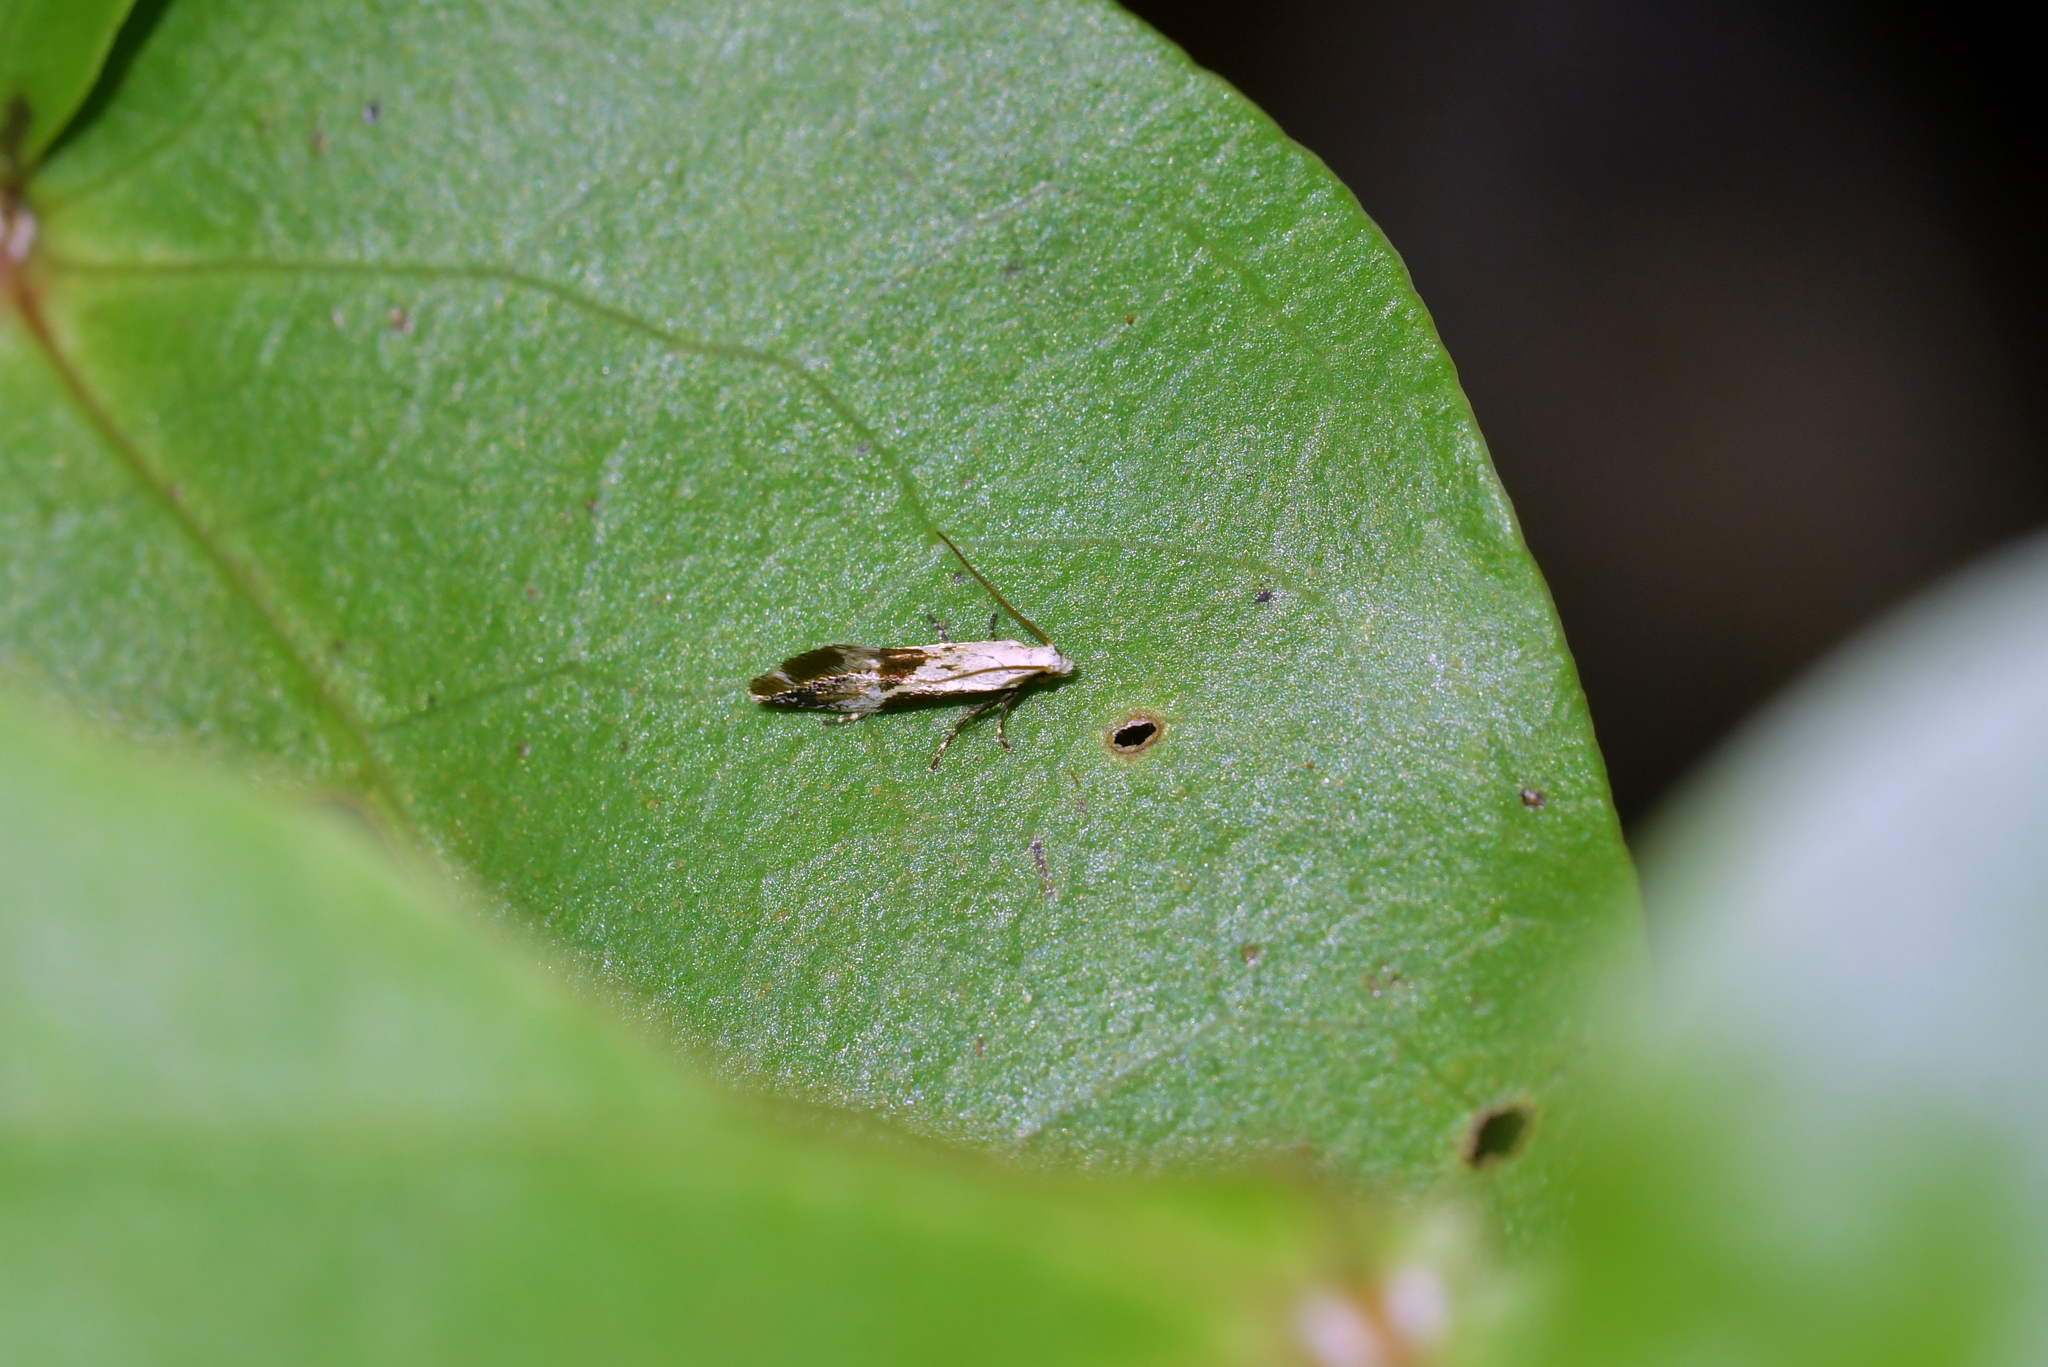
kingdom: Animalia
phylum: Arthropoda
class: Insecta
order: Lepidoptera
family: Mnesarchaeidae
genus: Mnesarchella
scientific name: Mnesarchella fusilella
